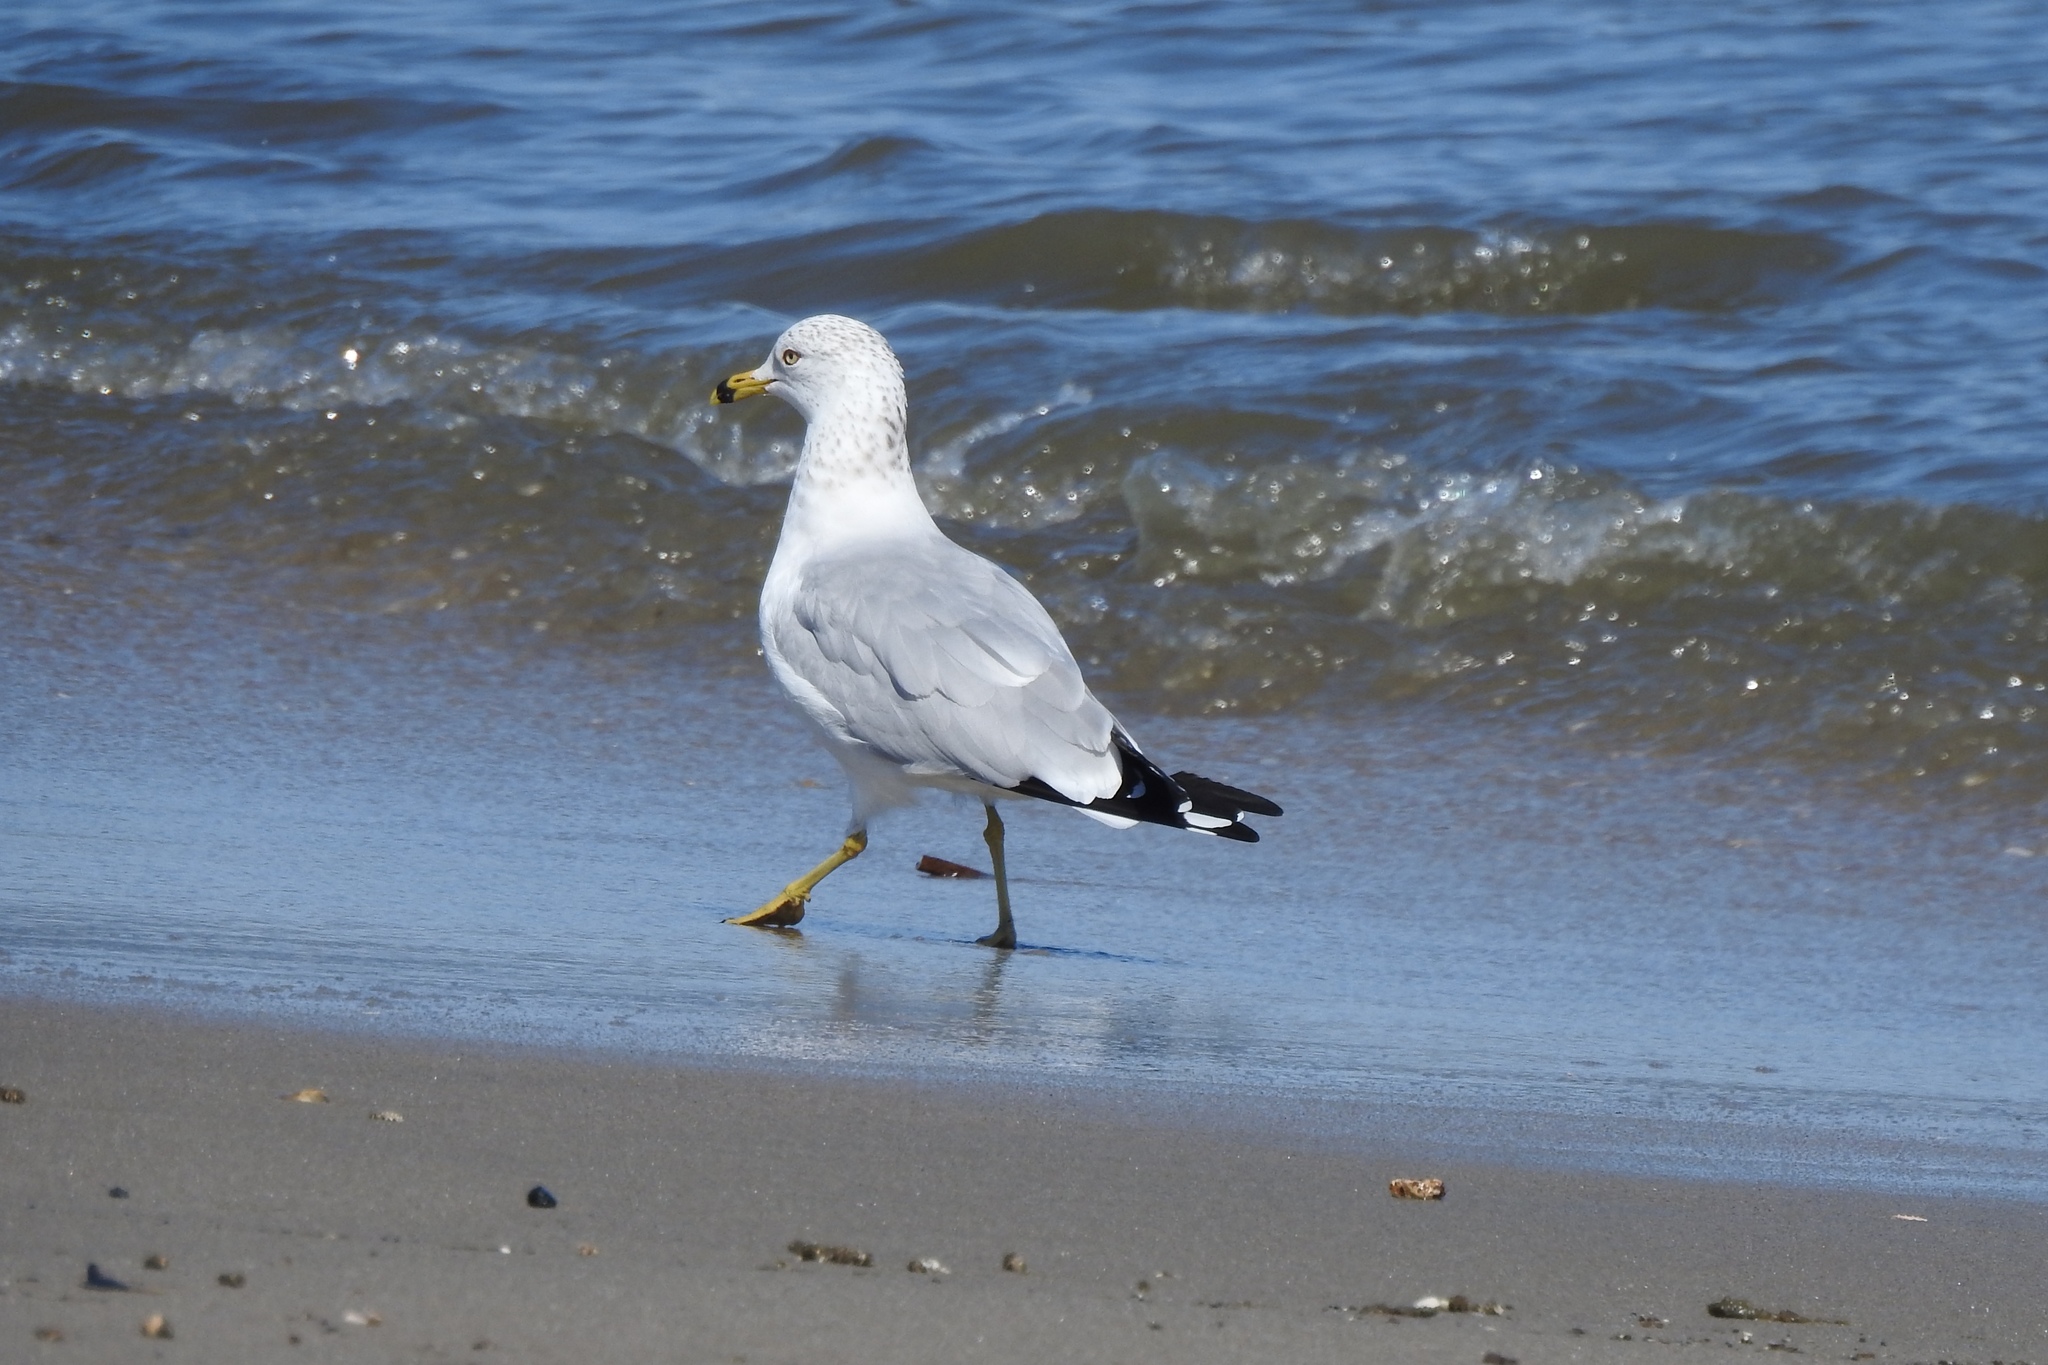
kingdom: Animalia
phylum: Chordata
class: Aves
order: Charadriiformes
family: Laridae
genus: Larus
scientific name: Larus delawarensis
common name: Ring-billed gull
